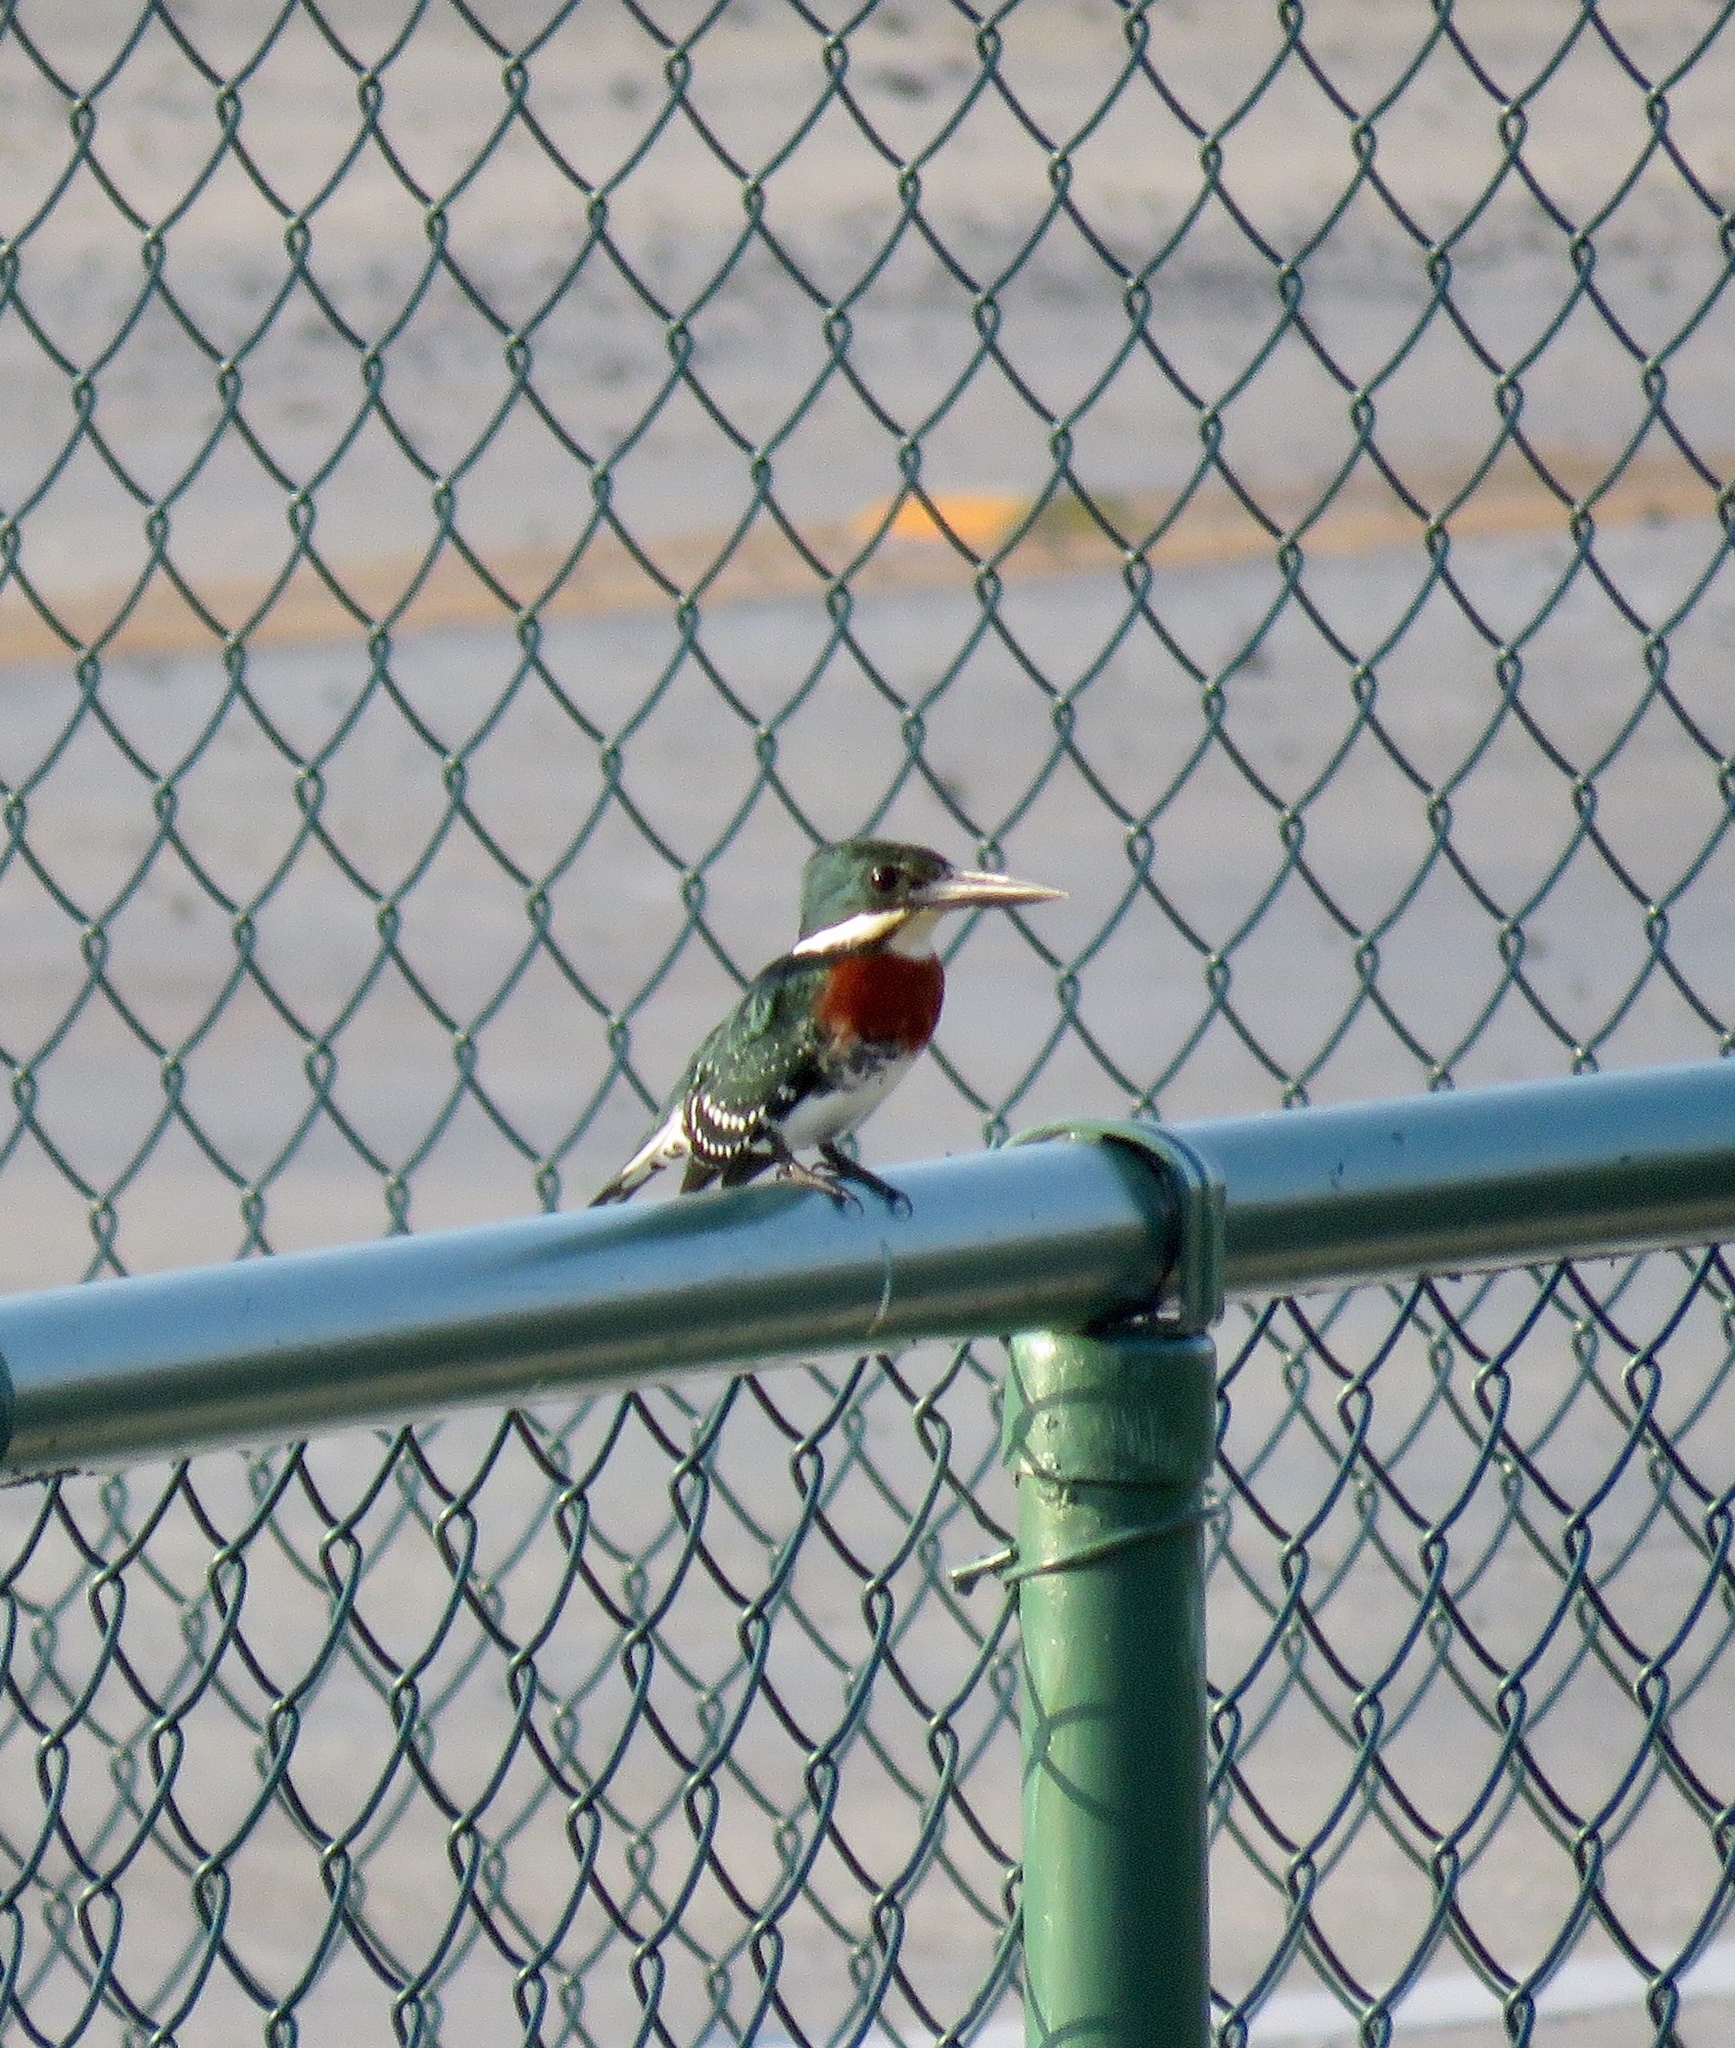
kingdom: Animalia
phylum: Chordata
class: Aves
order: Coraciiformes
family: Alcedinidae
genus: Chloroceryle
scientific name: Chloroceryle americana
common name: Green kingfisher
